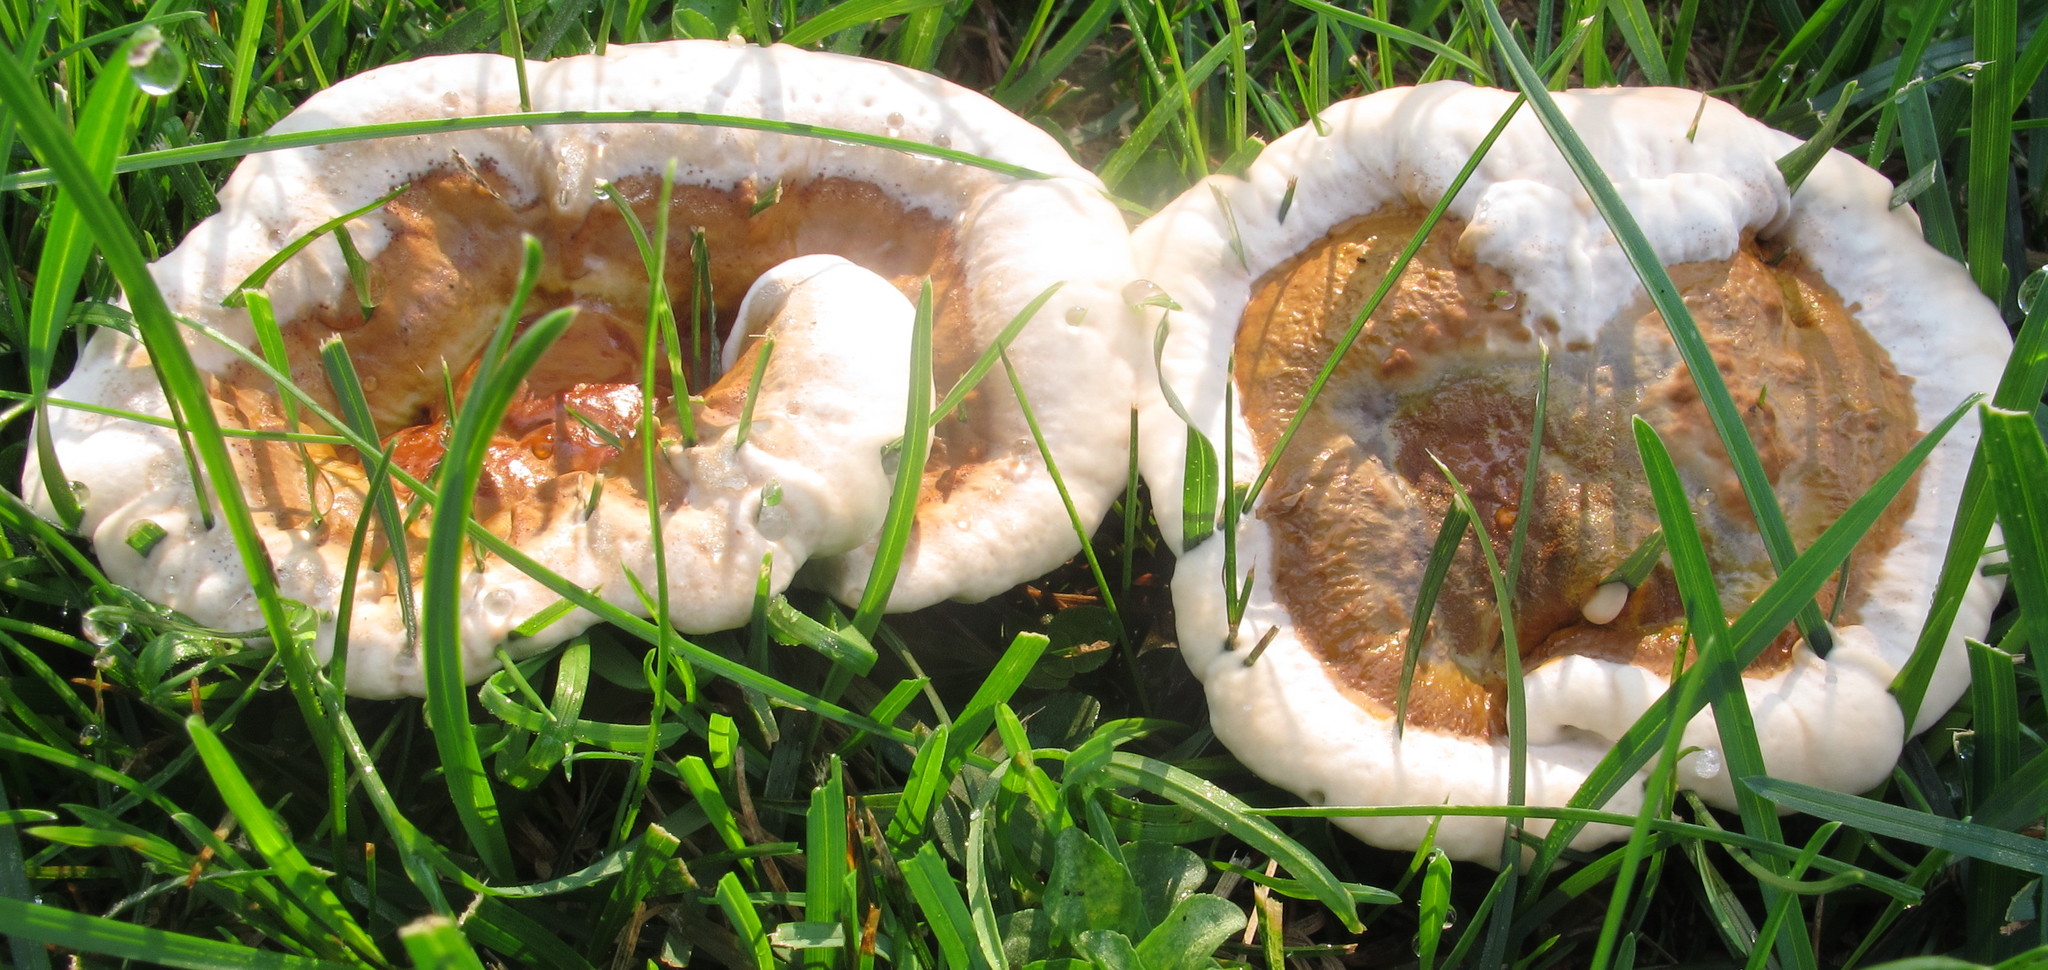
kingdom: Fungi
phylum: Basidiomycota
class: Agaricomycetes
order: Polyporales
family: Polyporaceae
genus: Ganoderma
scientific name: Ganoderma resinaceum
